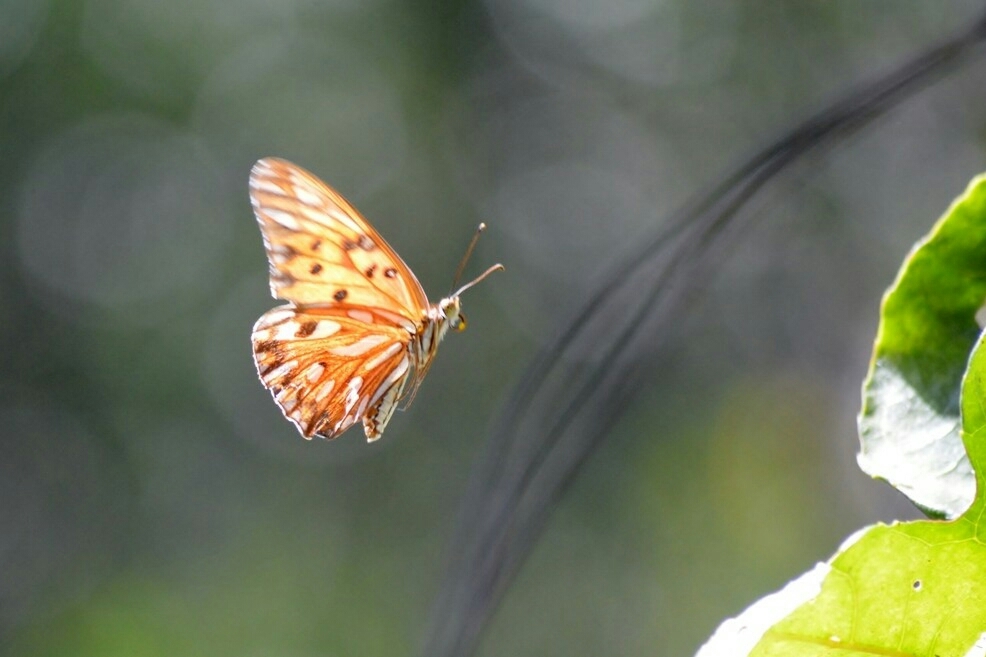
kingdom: Animalia
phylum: Arthropoda
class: Insecta
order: Lepidoptera
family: Nymphalidae
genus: Dione
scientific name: Dione vanillae
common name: Gulf fritillary
